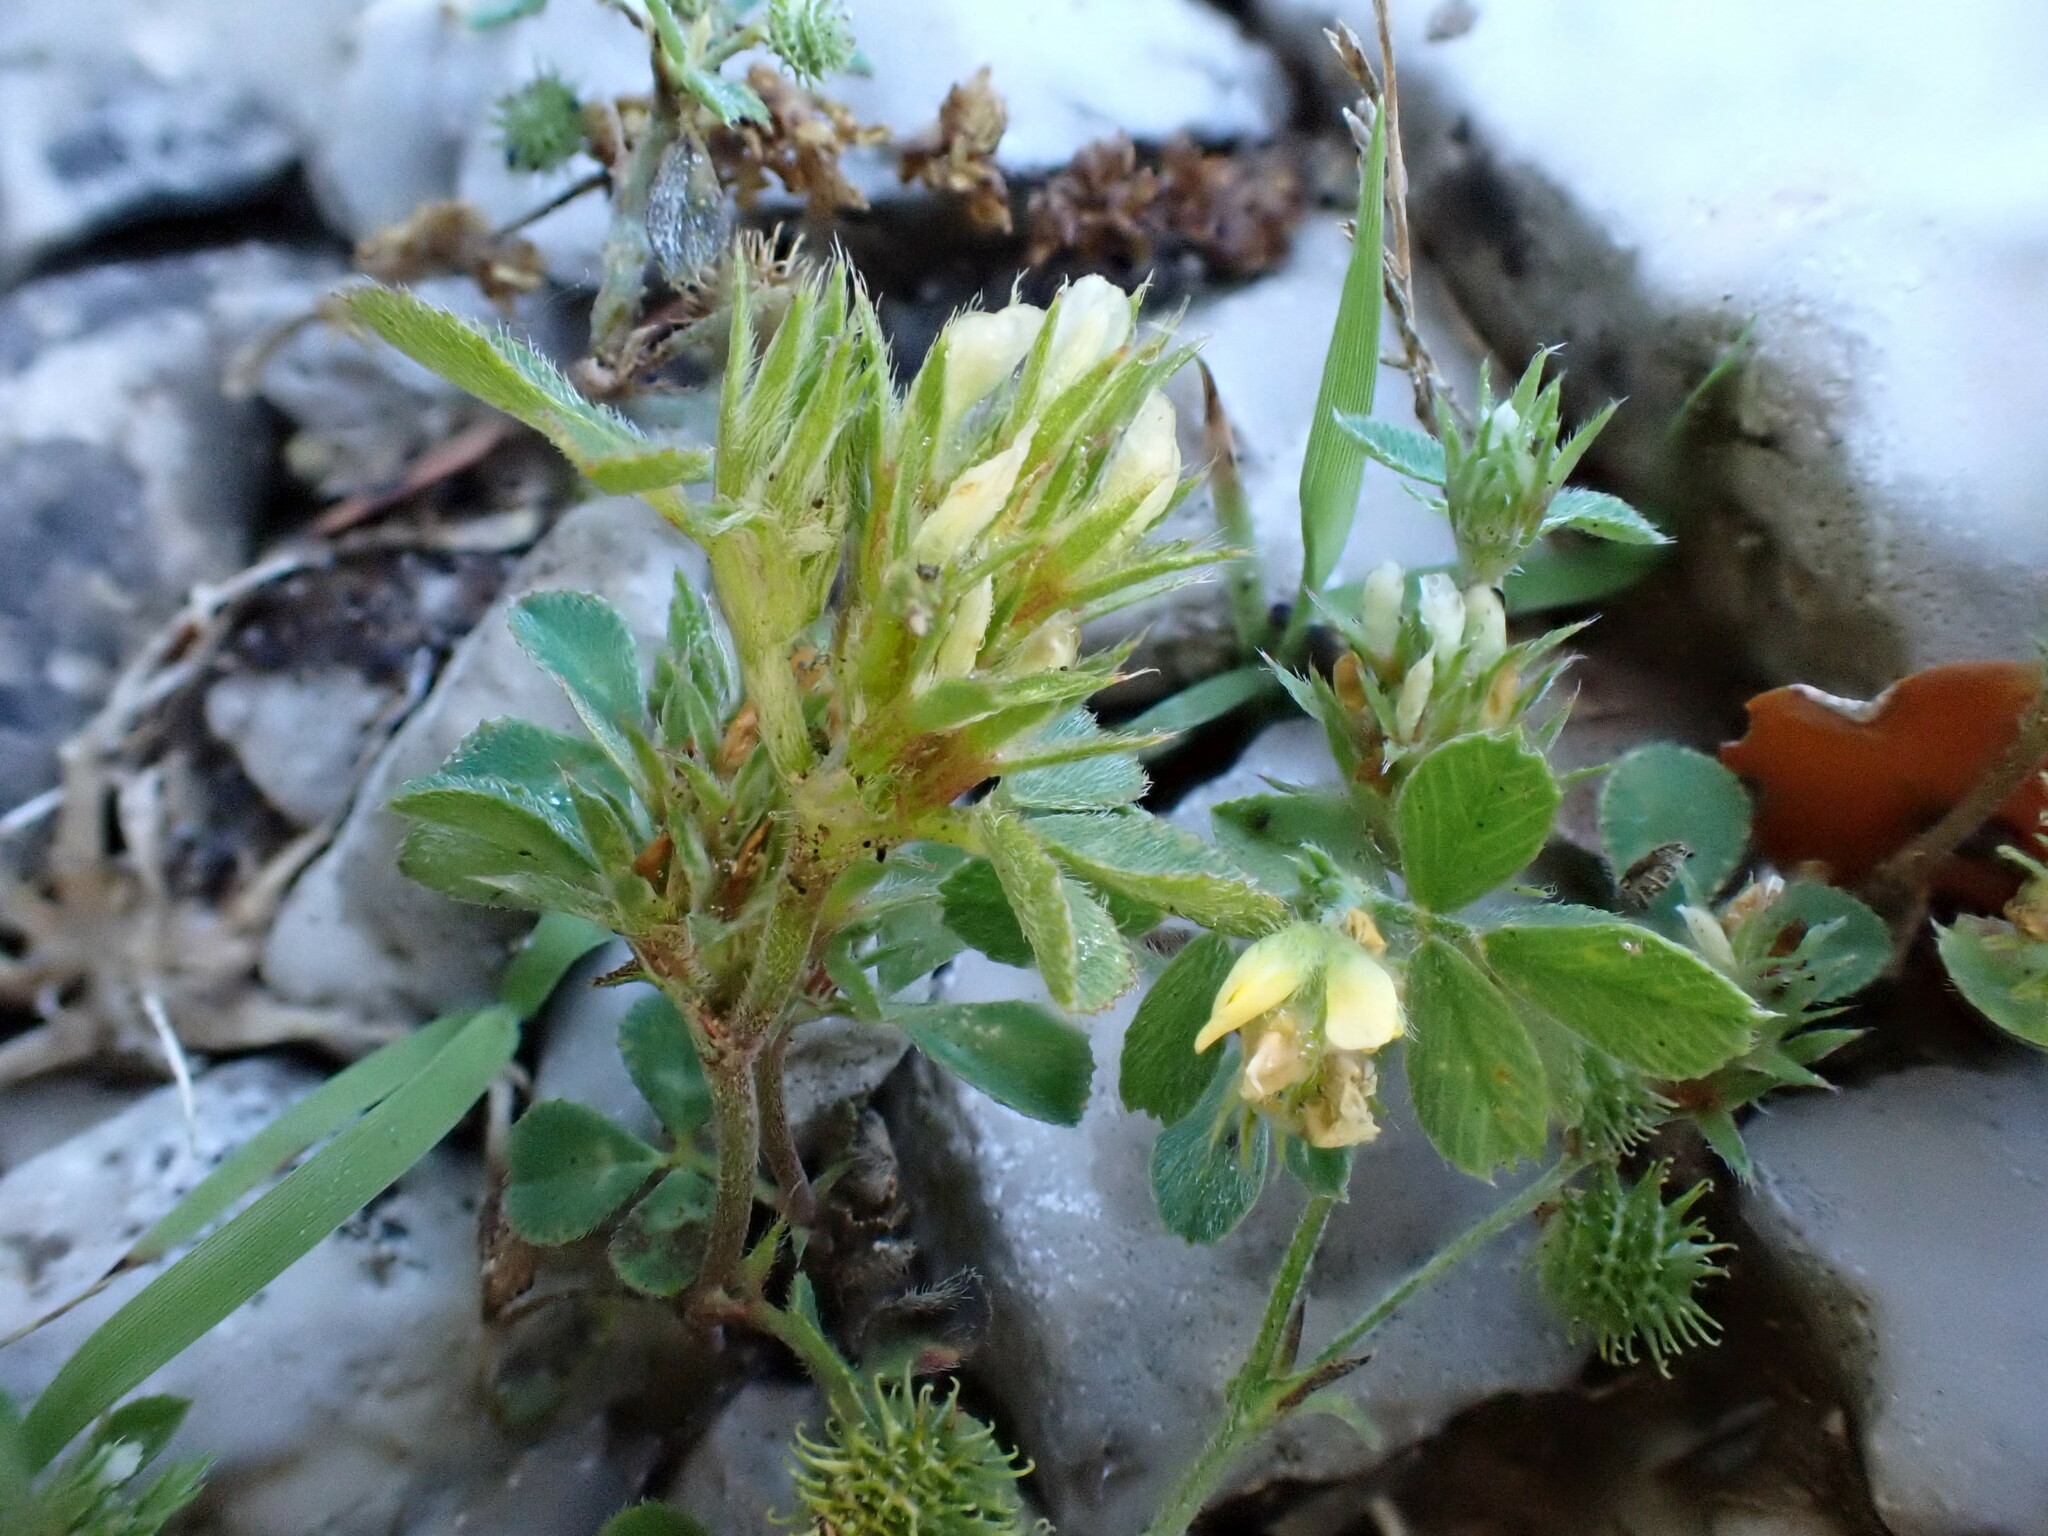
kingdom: Plantae
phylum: Tracheophyta
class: Magnoliopsida
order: Fabales
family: Fabaceae
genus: Trifolium
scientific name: Trifolium scabrum
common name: Rough clover
